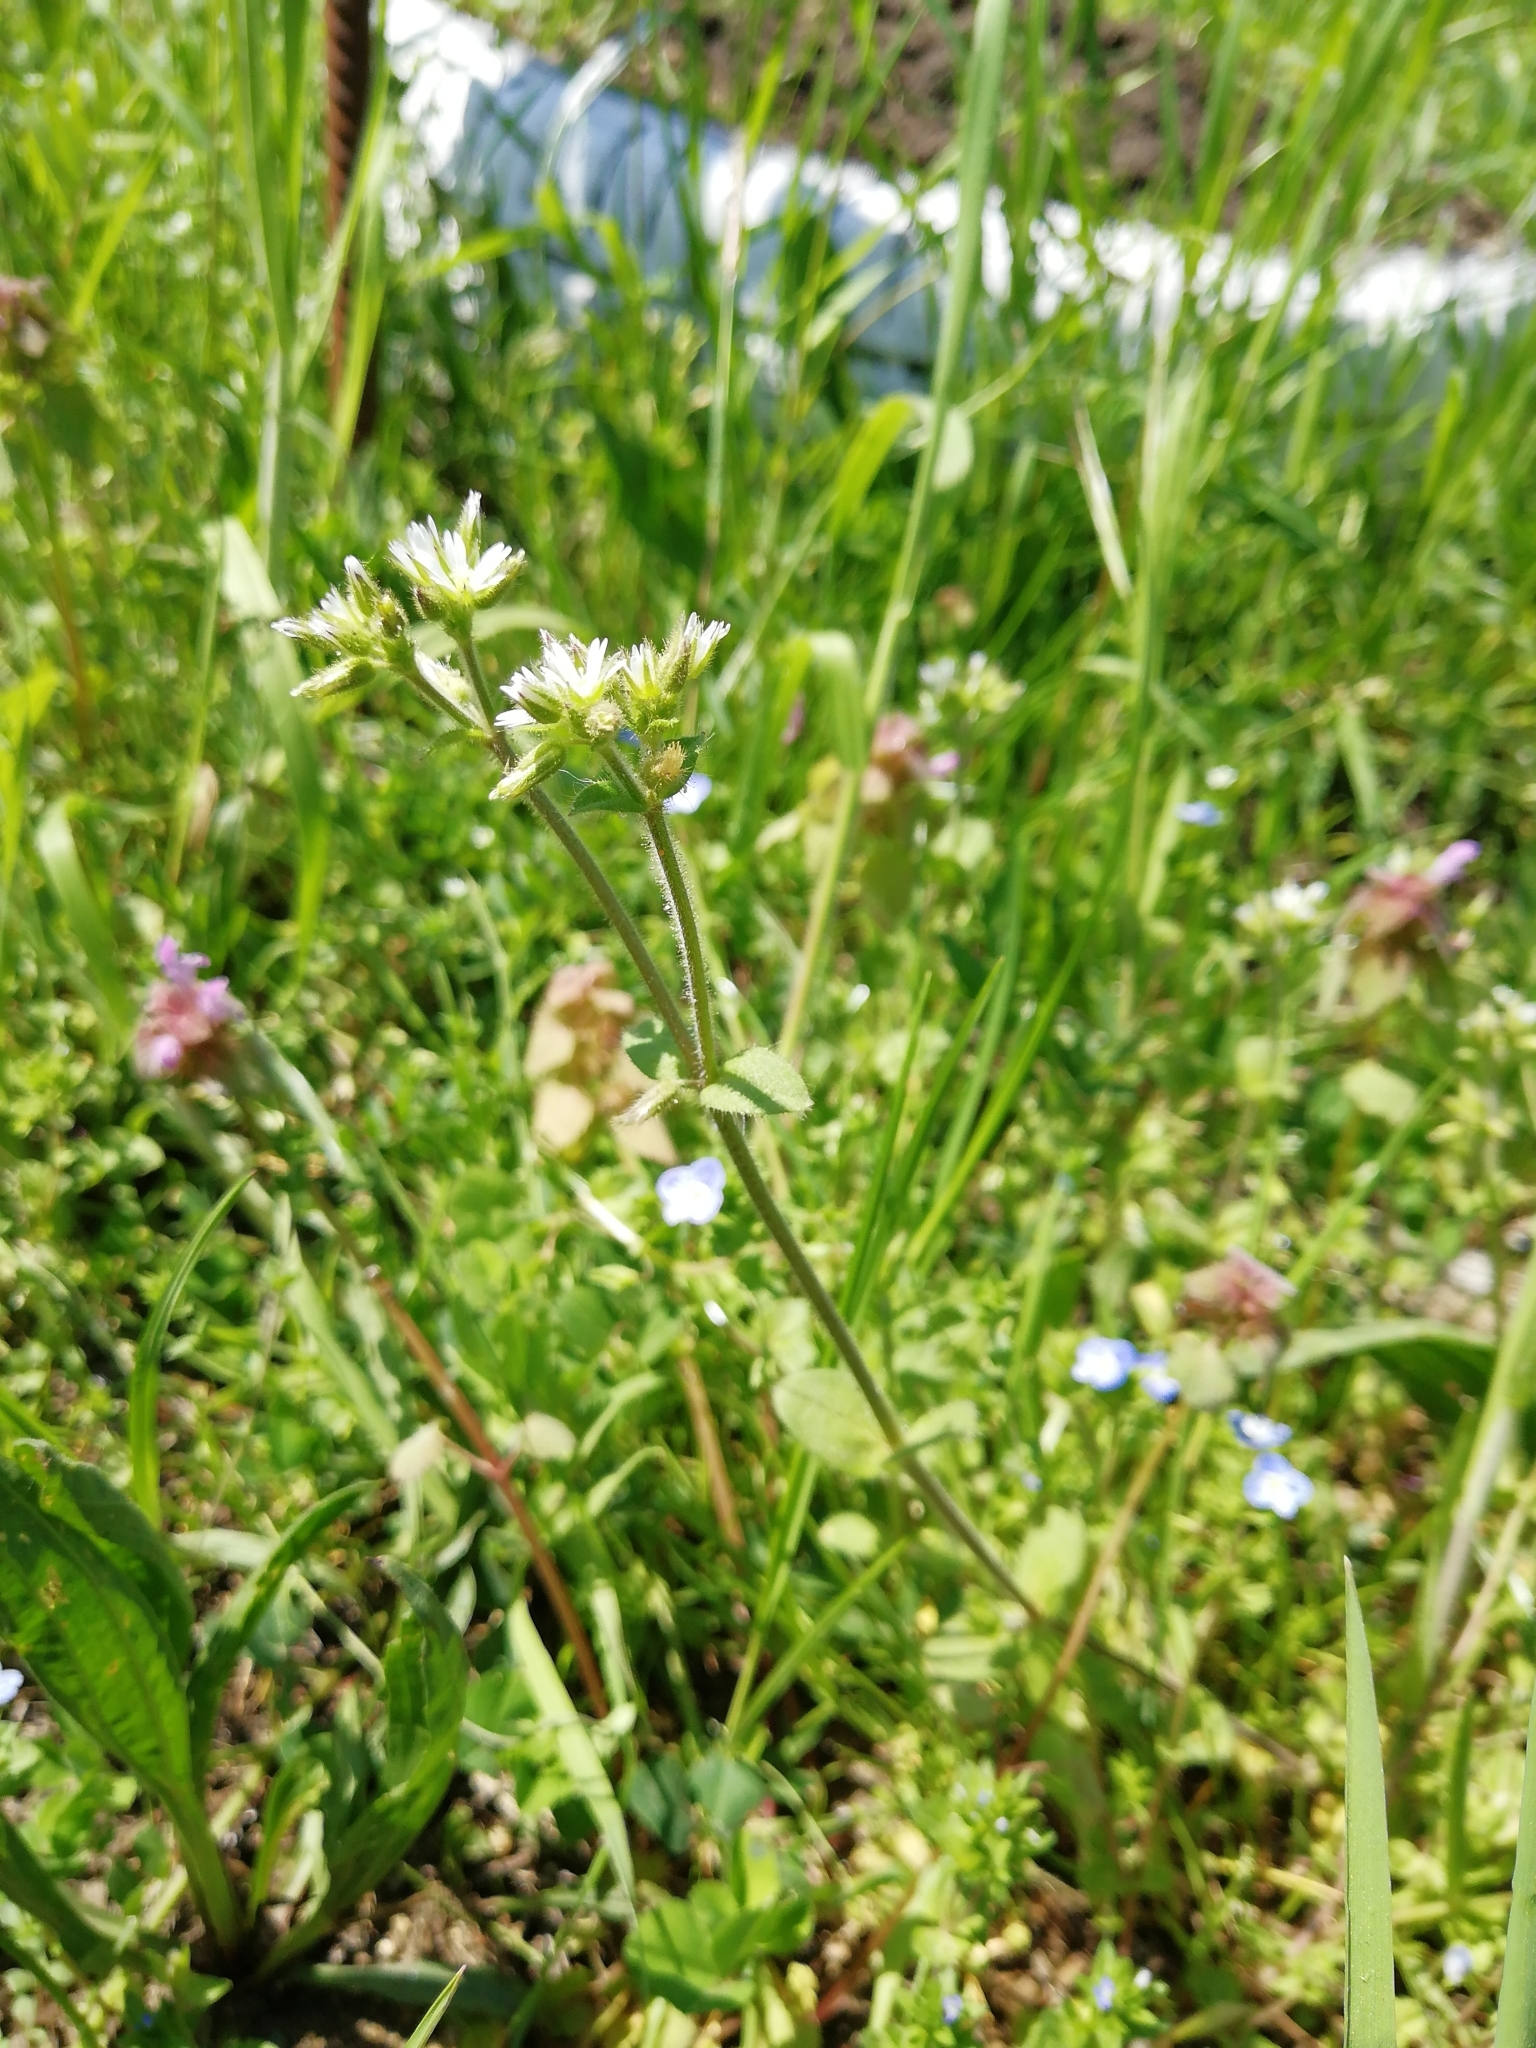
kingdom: Plantae
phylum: Tracheophyta
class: Magnoliopsida
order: Caryophyllales
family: Caryophyllaceae
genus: Cerastium
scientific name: Cerastium glomeratum
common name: Sticky chickweed
